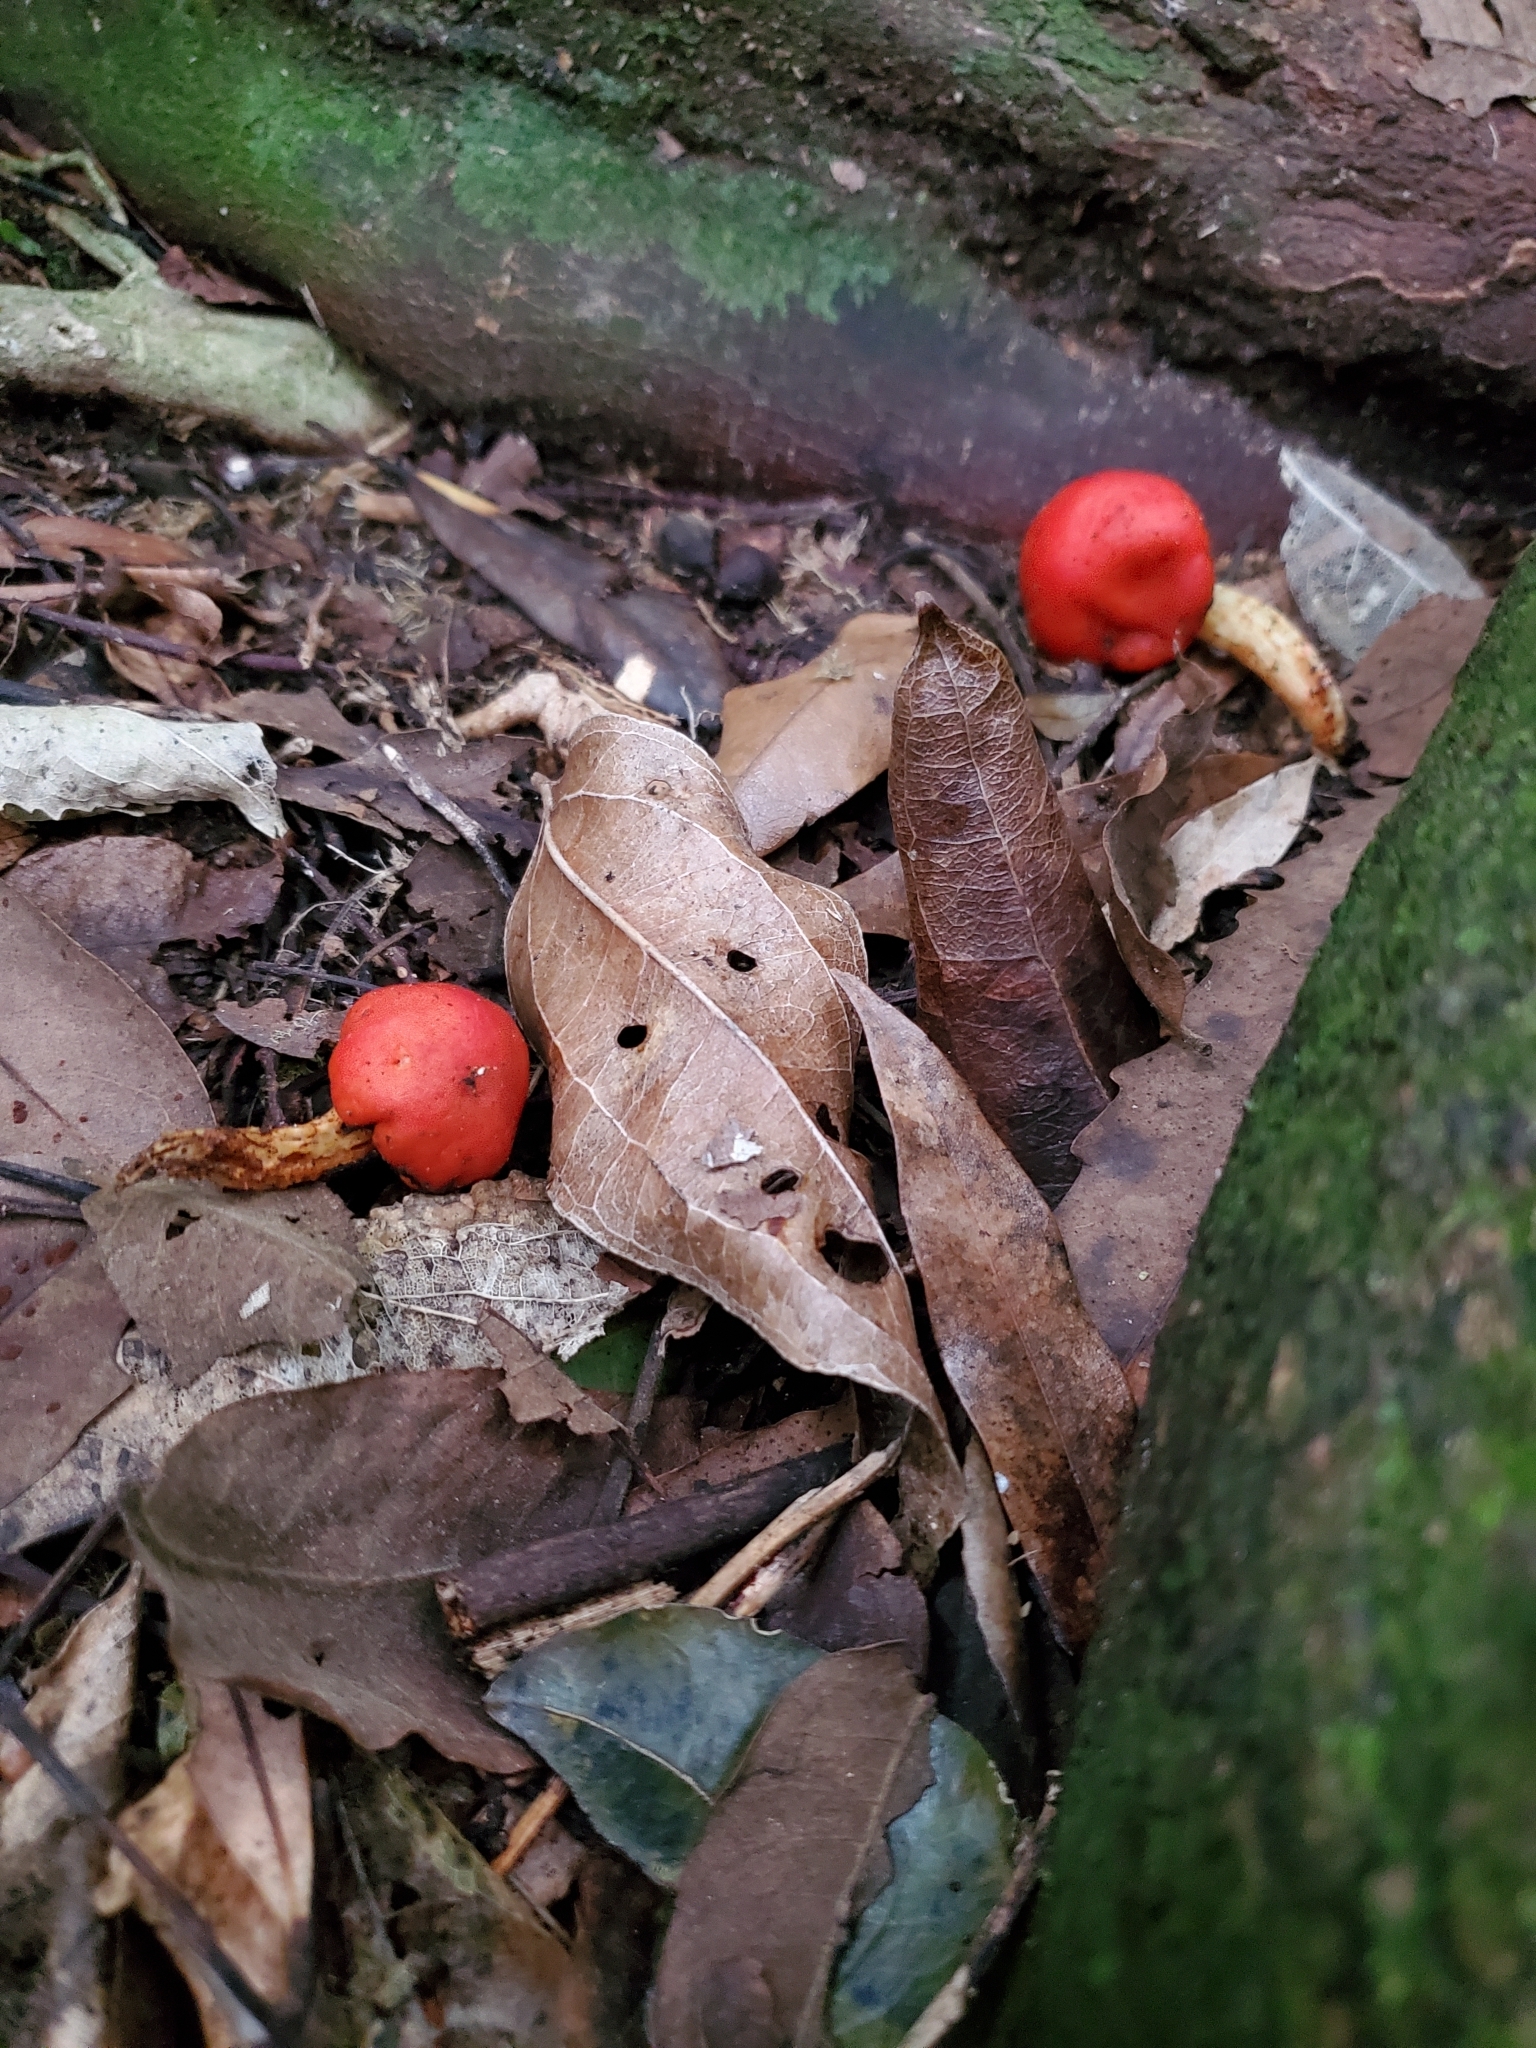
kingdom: Fungi
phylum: Basidiomycota
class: Agaricomycetes
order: Agaricales
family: Strophariaceae
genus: Leratiomyces
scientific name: Leratiomyces erythrocephalus
